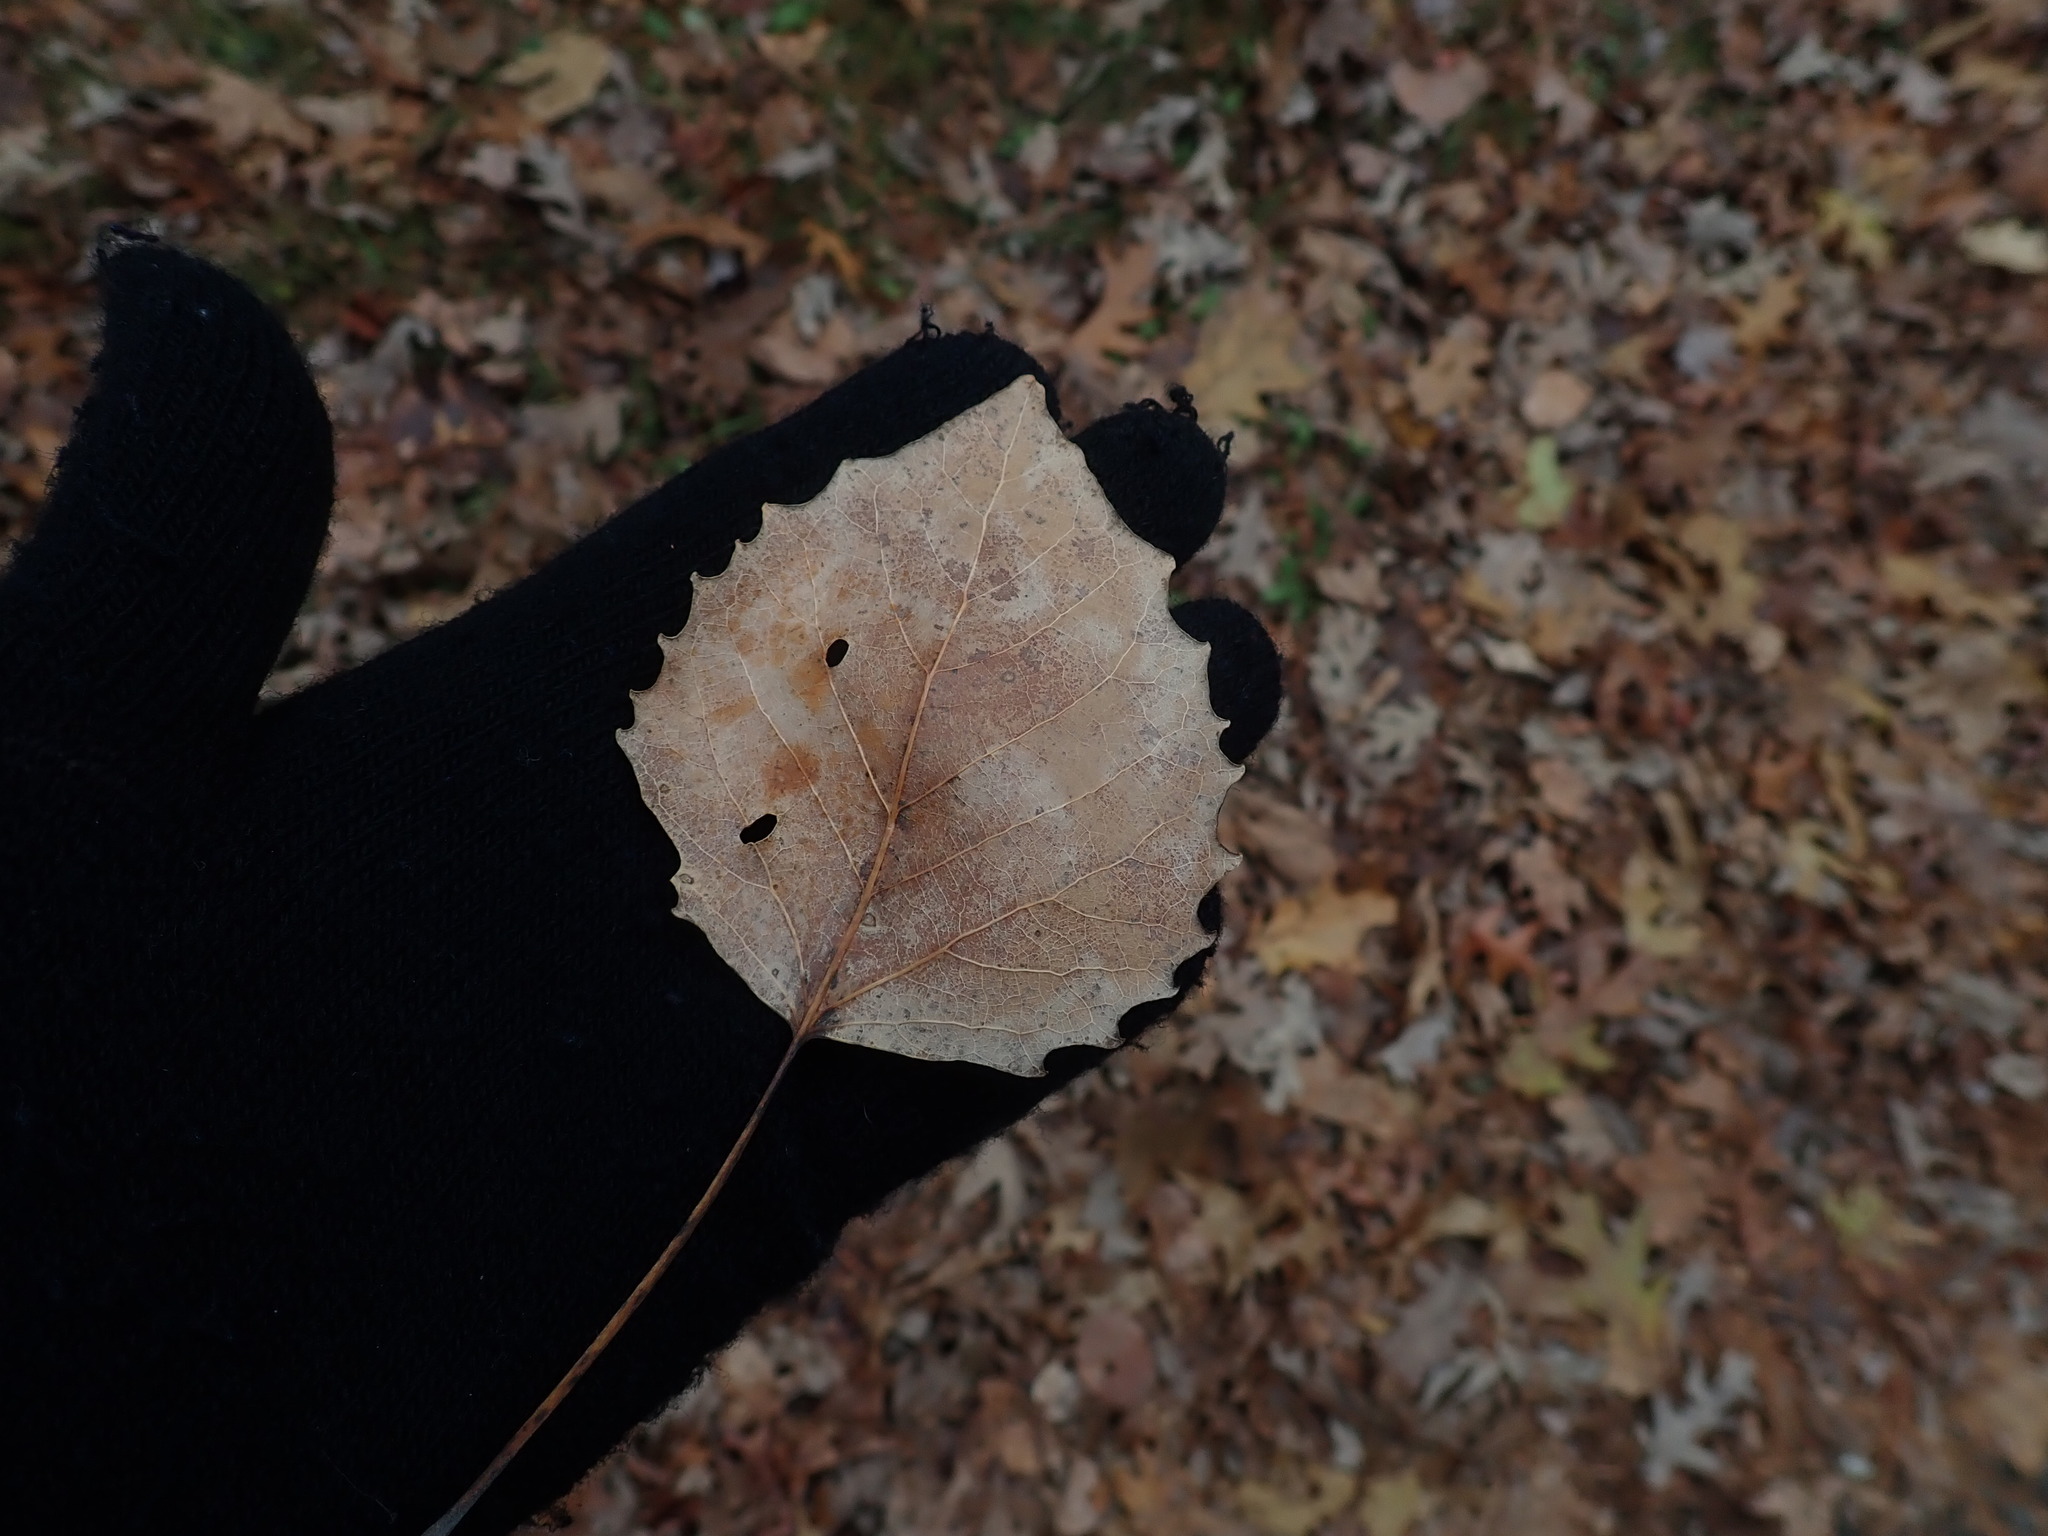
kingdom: Plantae
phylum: Tracheophyta
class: Magnoliopsida
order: Malpighiales
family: Salicaceae
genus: Populus
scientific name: Populus grandidentata
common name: Bigtooth aspen
